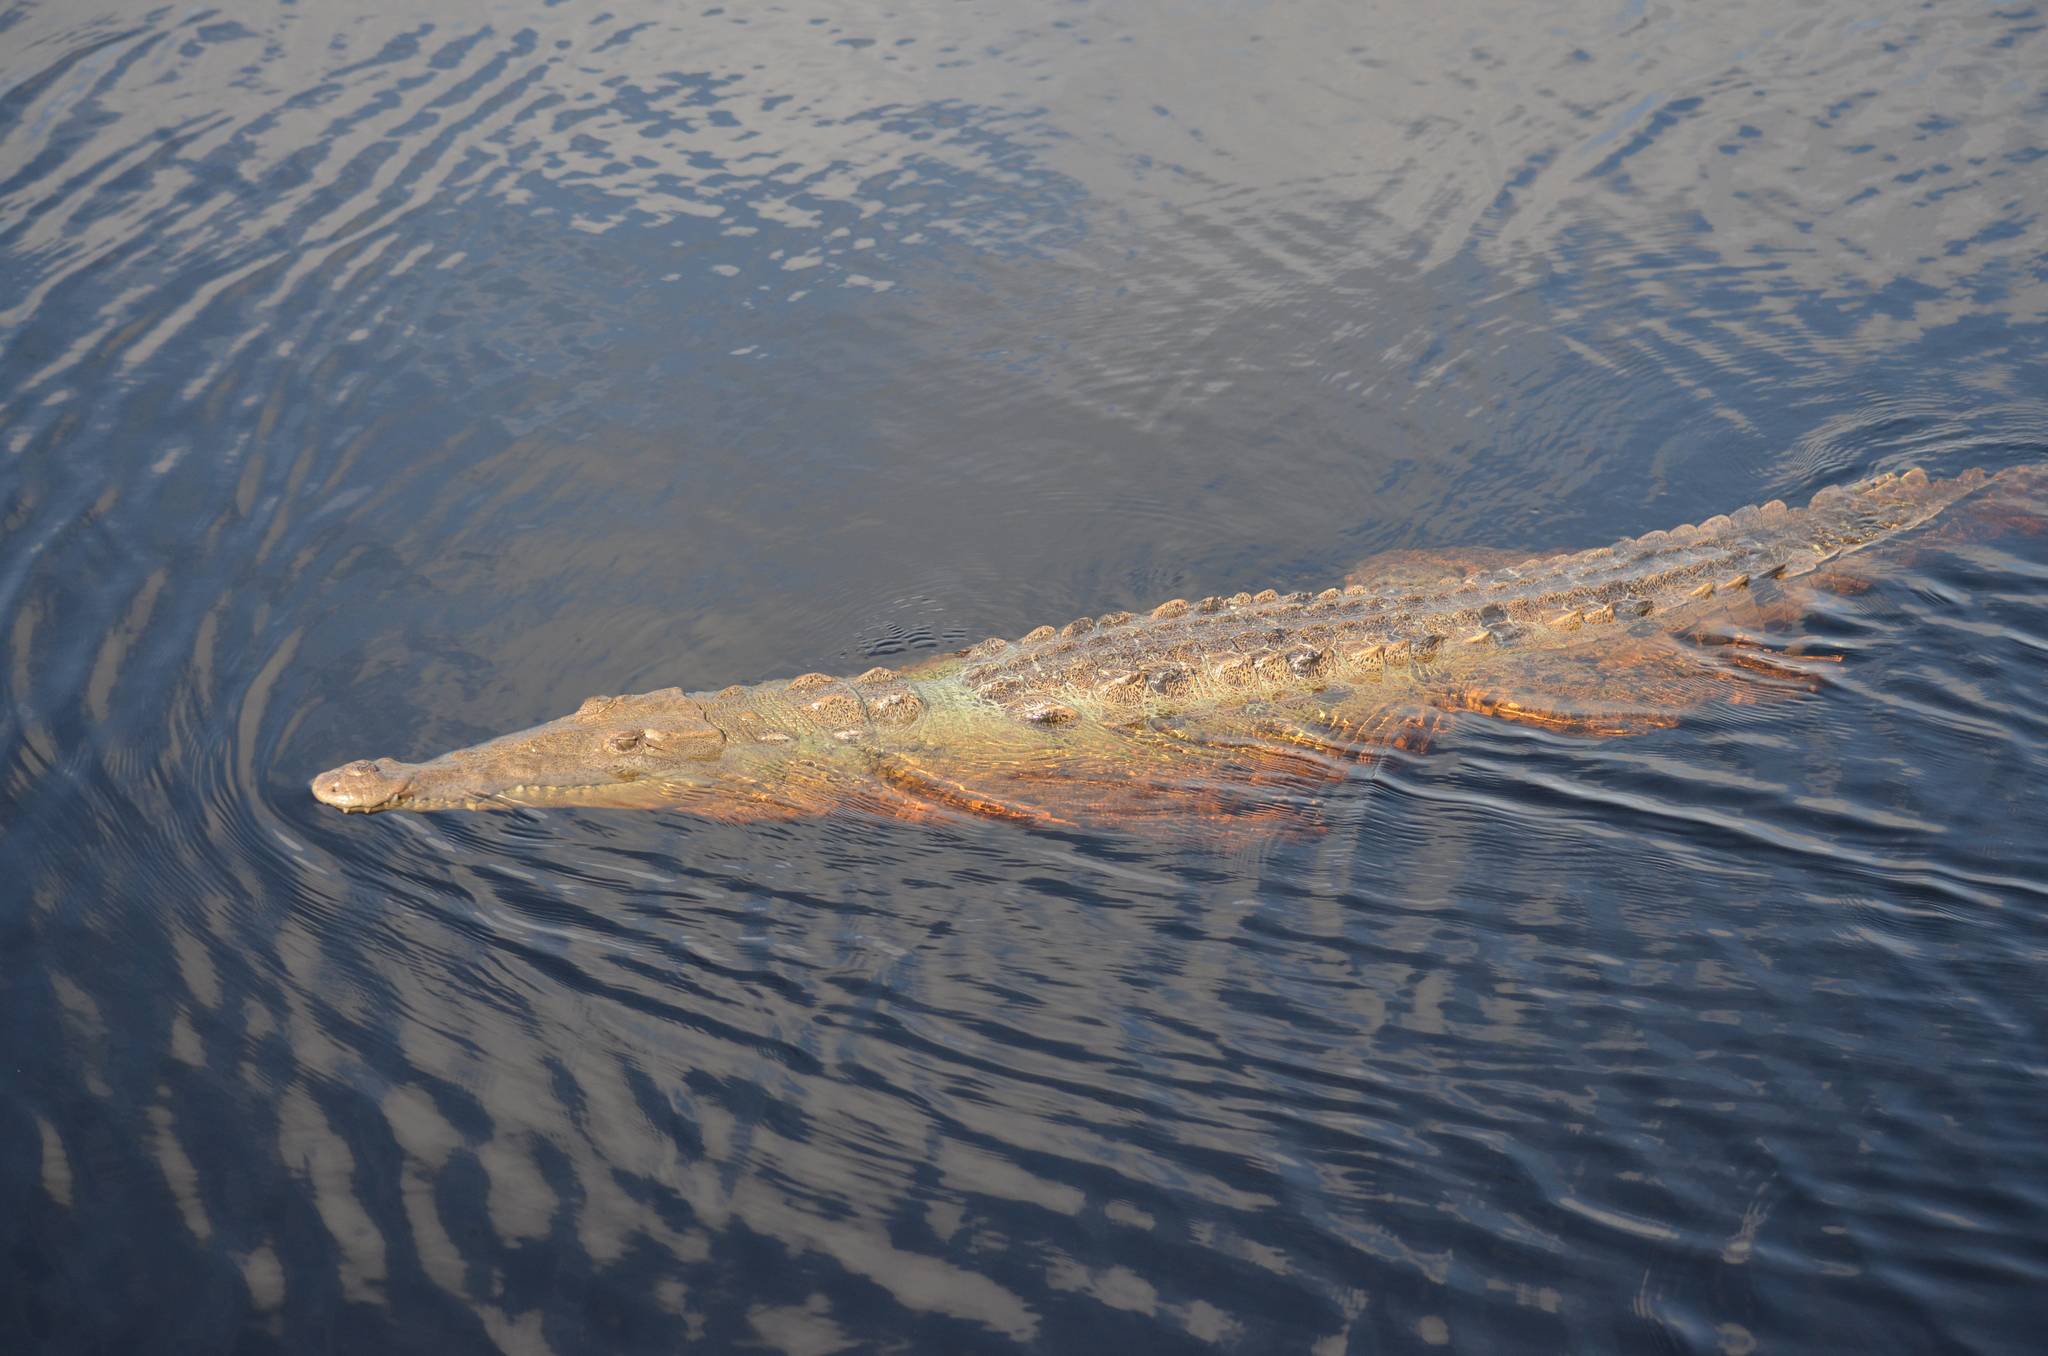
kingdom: Animalia
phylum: Chordata
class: Crocodylia
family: Crocodylidae
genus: Crocodylus
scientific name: Crocodylus acutus
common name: American crocodile
